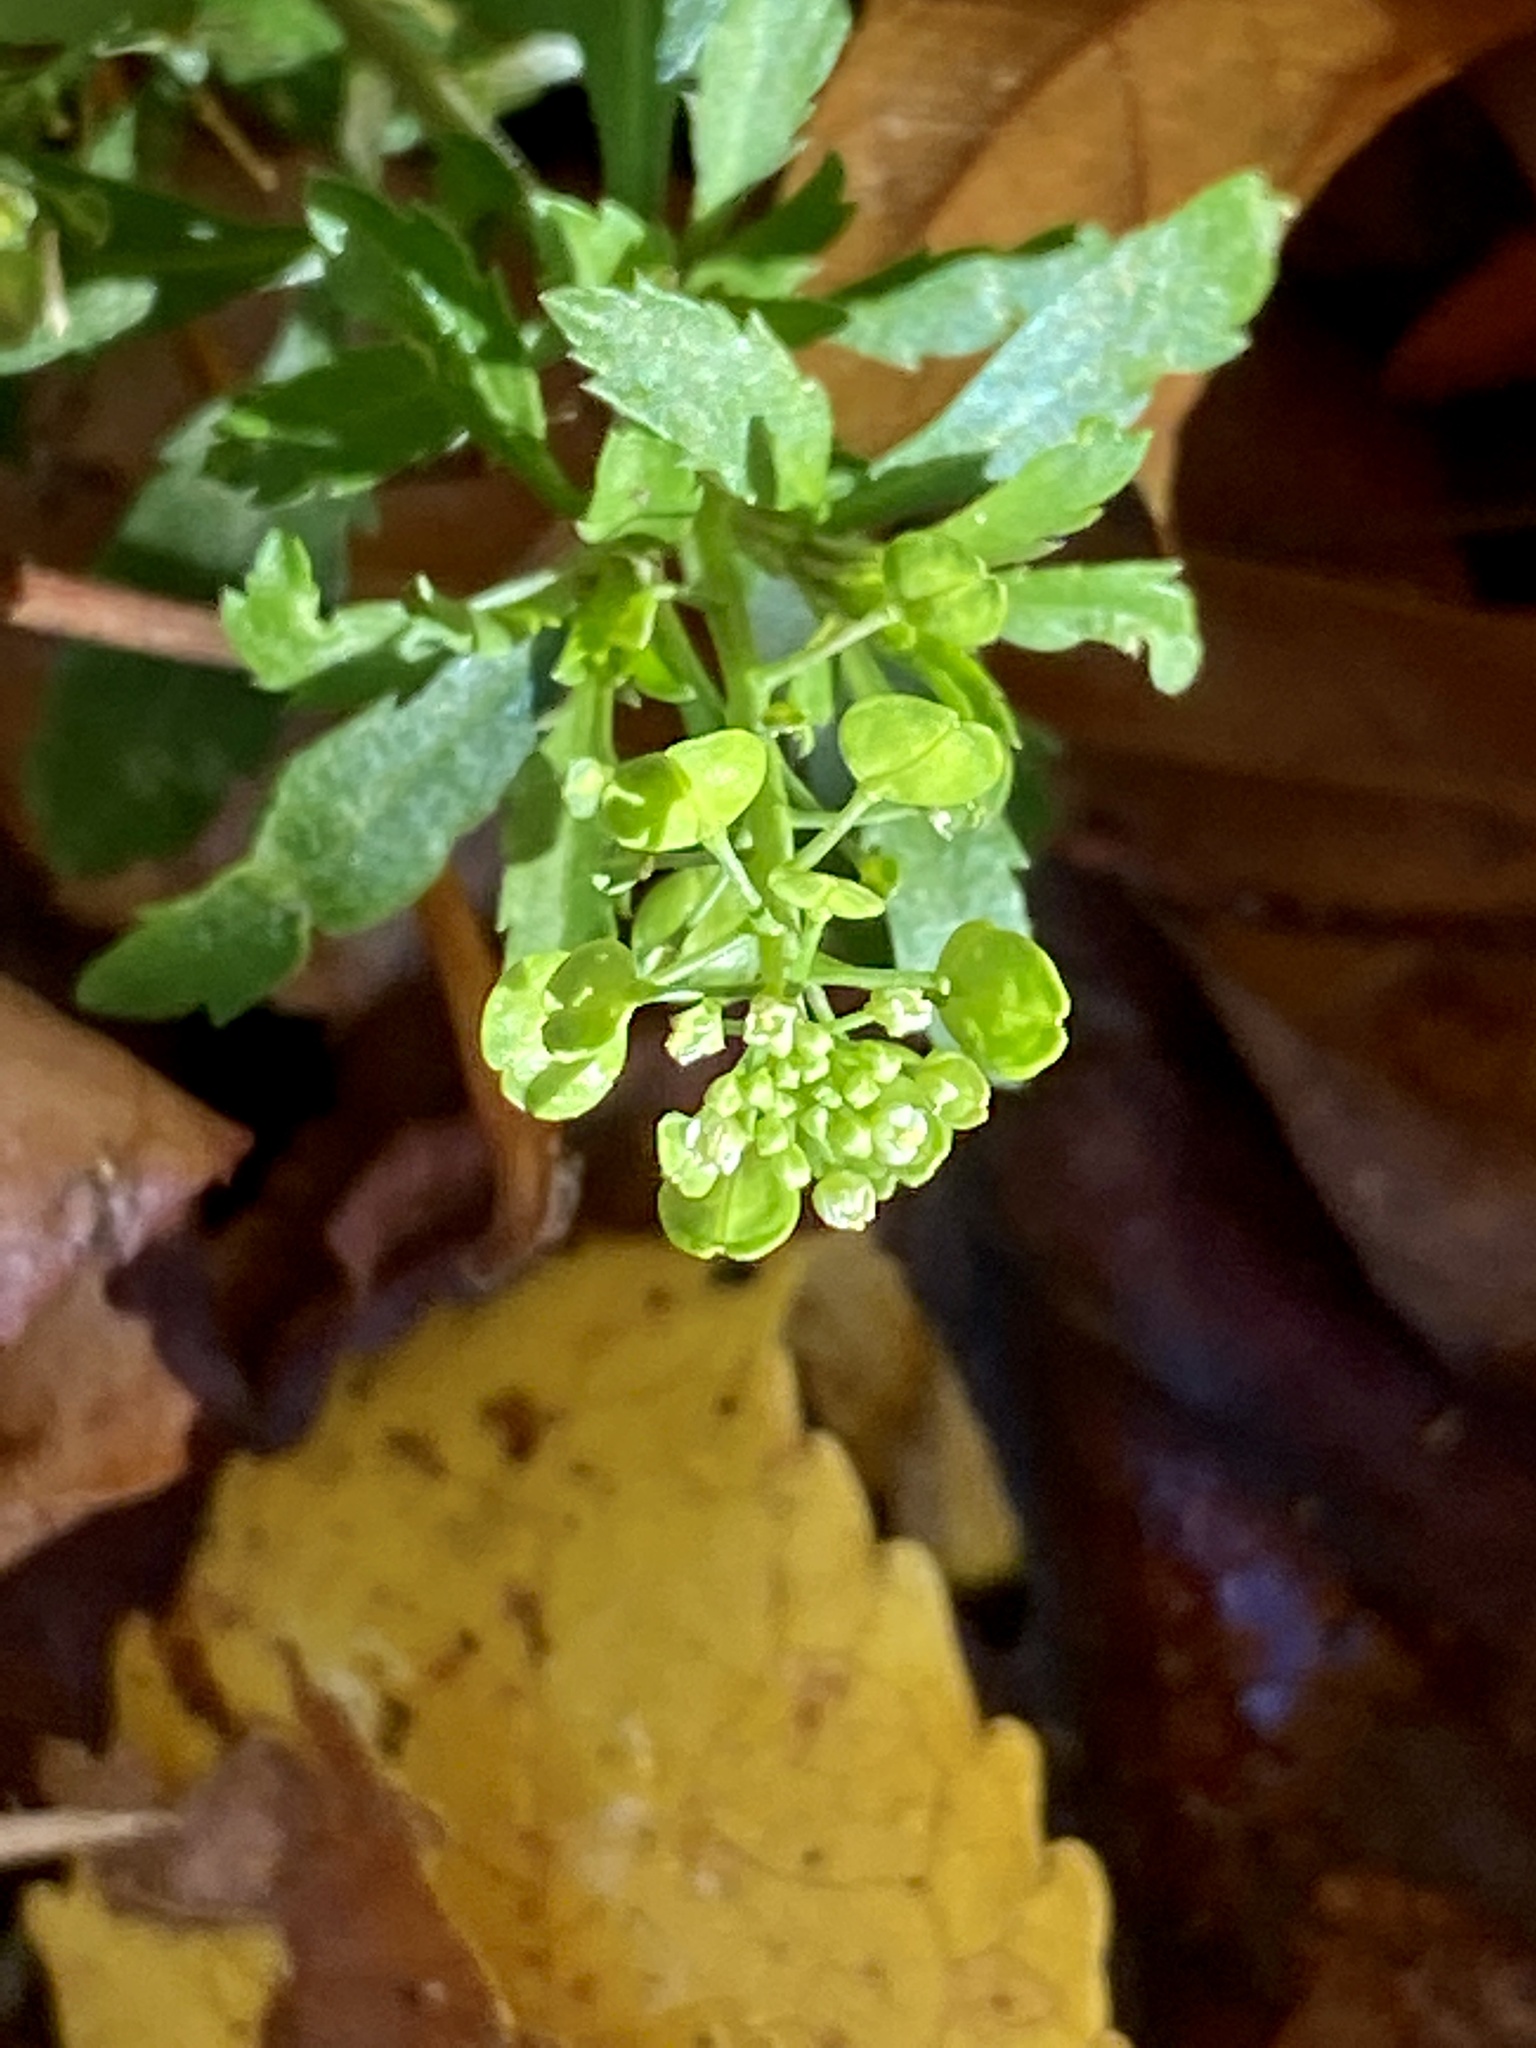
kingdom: Plantae
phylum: Tracheophyta
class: Magnoliopsida
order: Brassicales
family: Brassicaceae
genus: Lepidium
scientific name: Lepidium virginicum
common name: Least pepperwort
